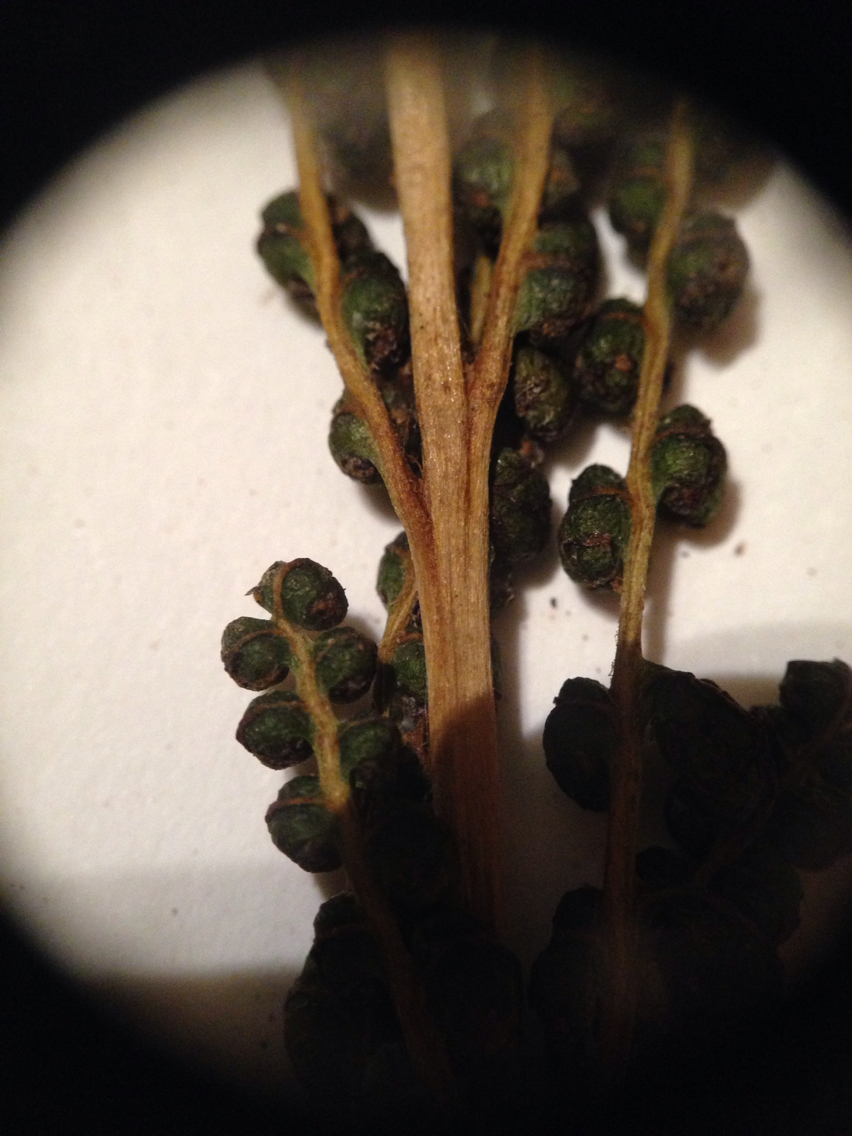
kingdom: Plantae
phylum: Tracheophyta
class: Polypodiopsida
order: Polypodiales
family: Onocleaceae
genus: Onoclea
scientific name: Onoclea sensibilis
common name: Sensitive fern
